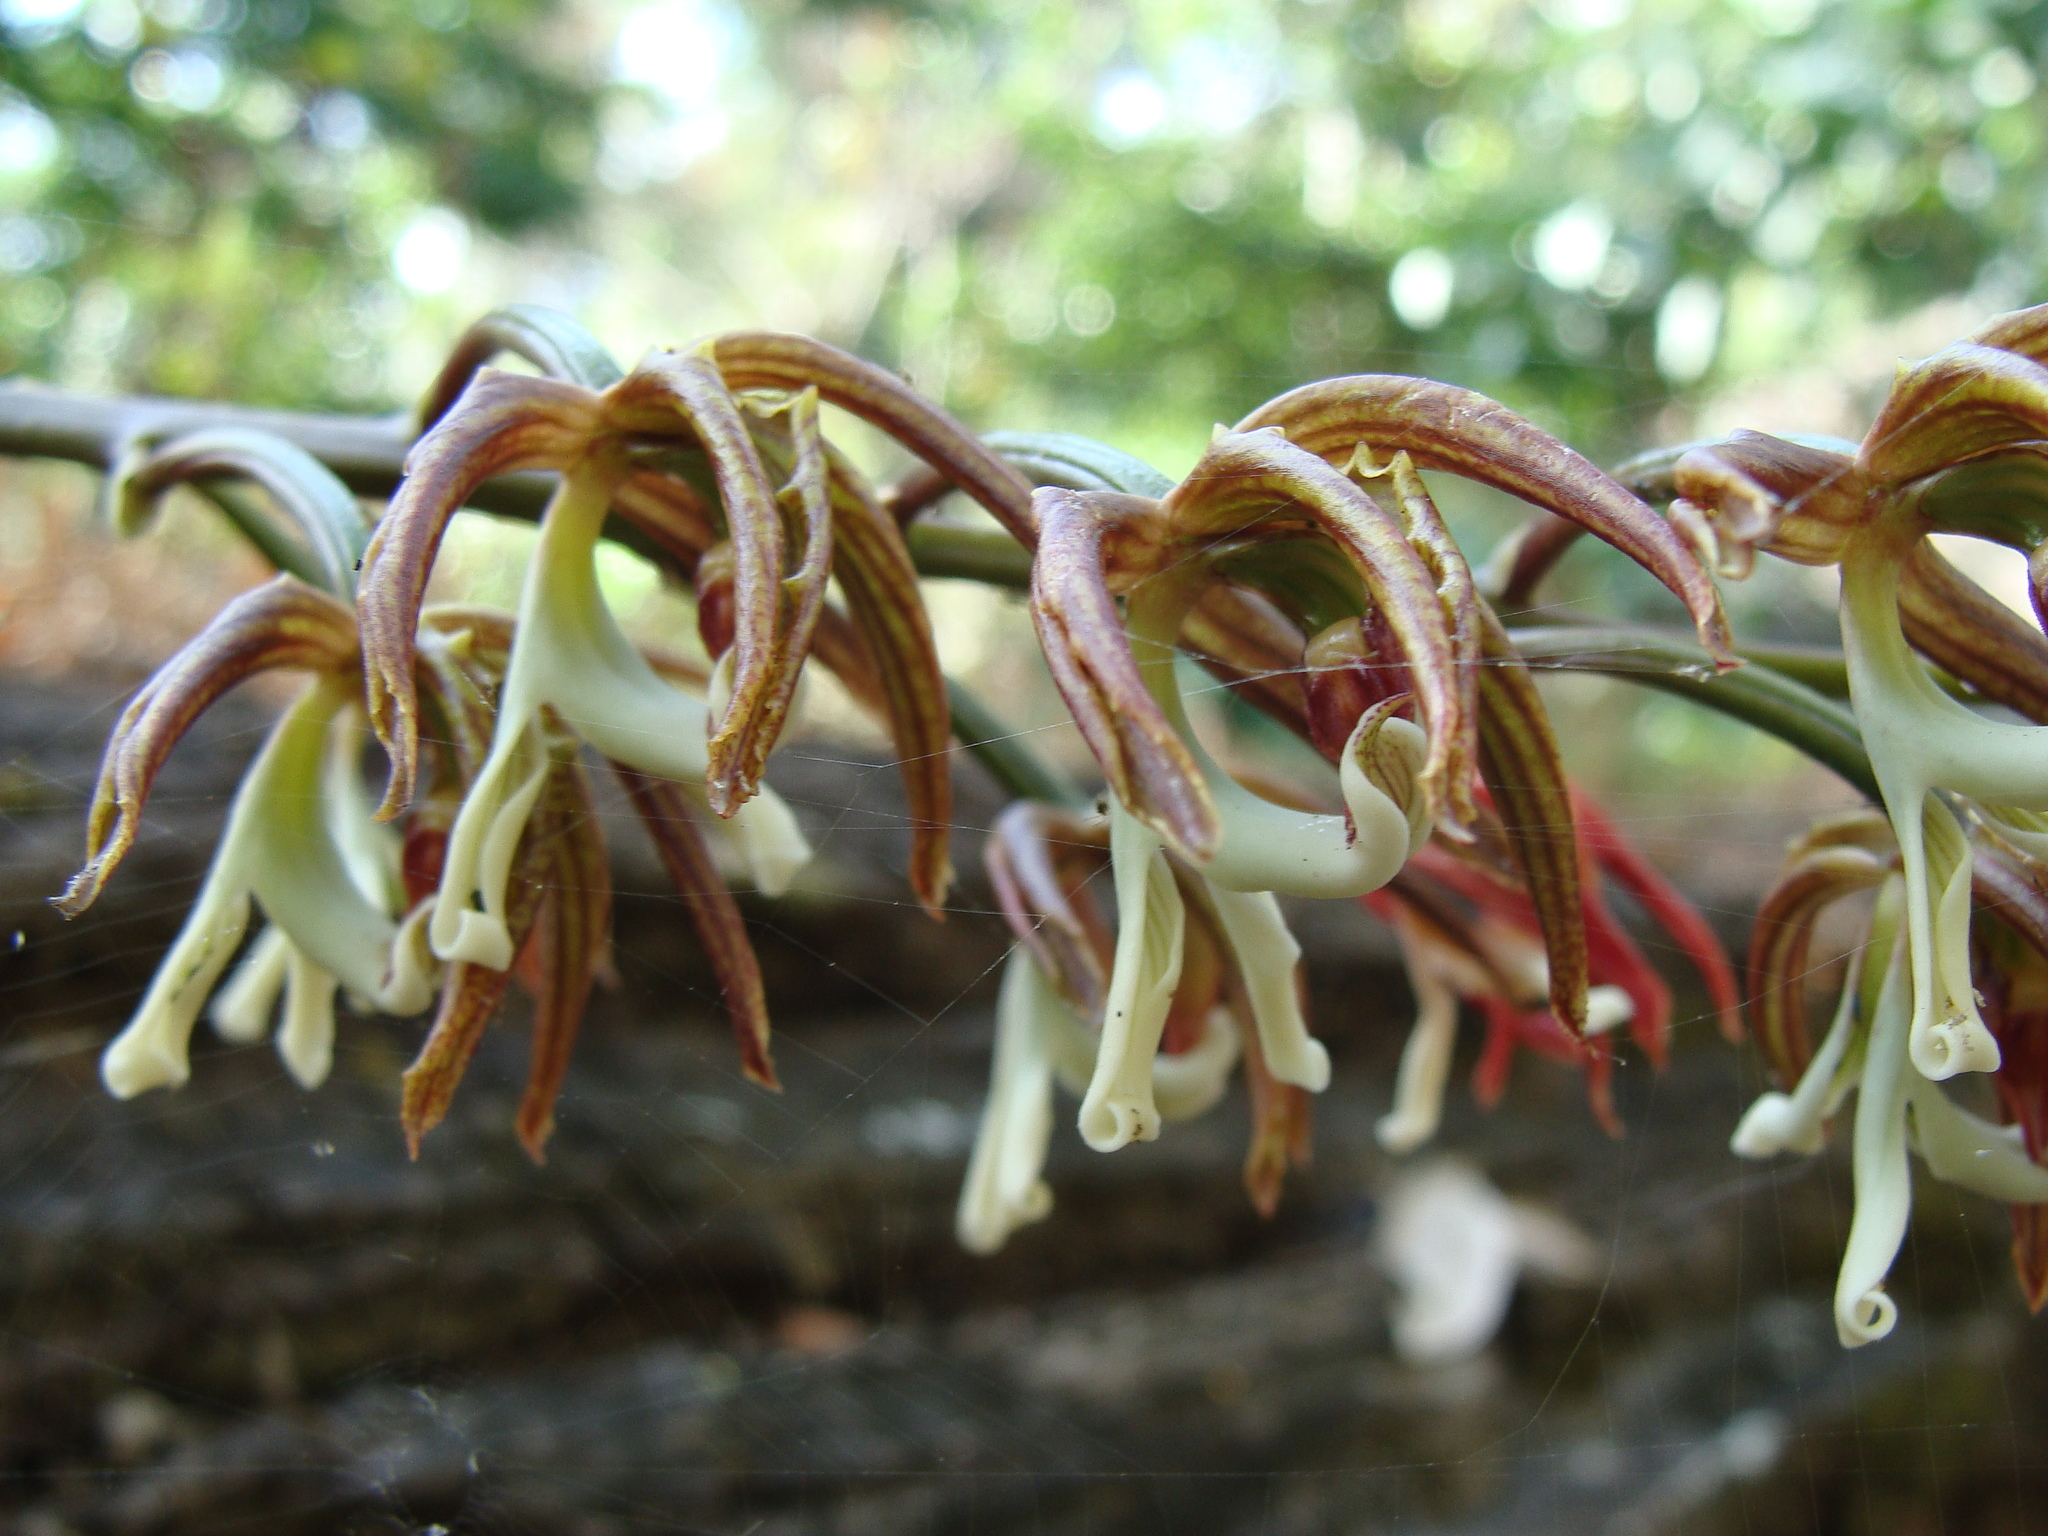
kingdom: Plantae
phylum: Tracheophyta
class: Liliopsida
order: Asparagales
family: Orchidaceae
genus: Mormodes
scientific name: Mormodes lineata
